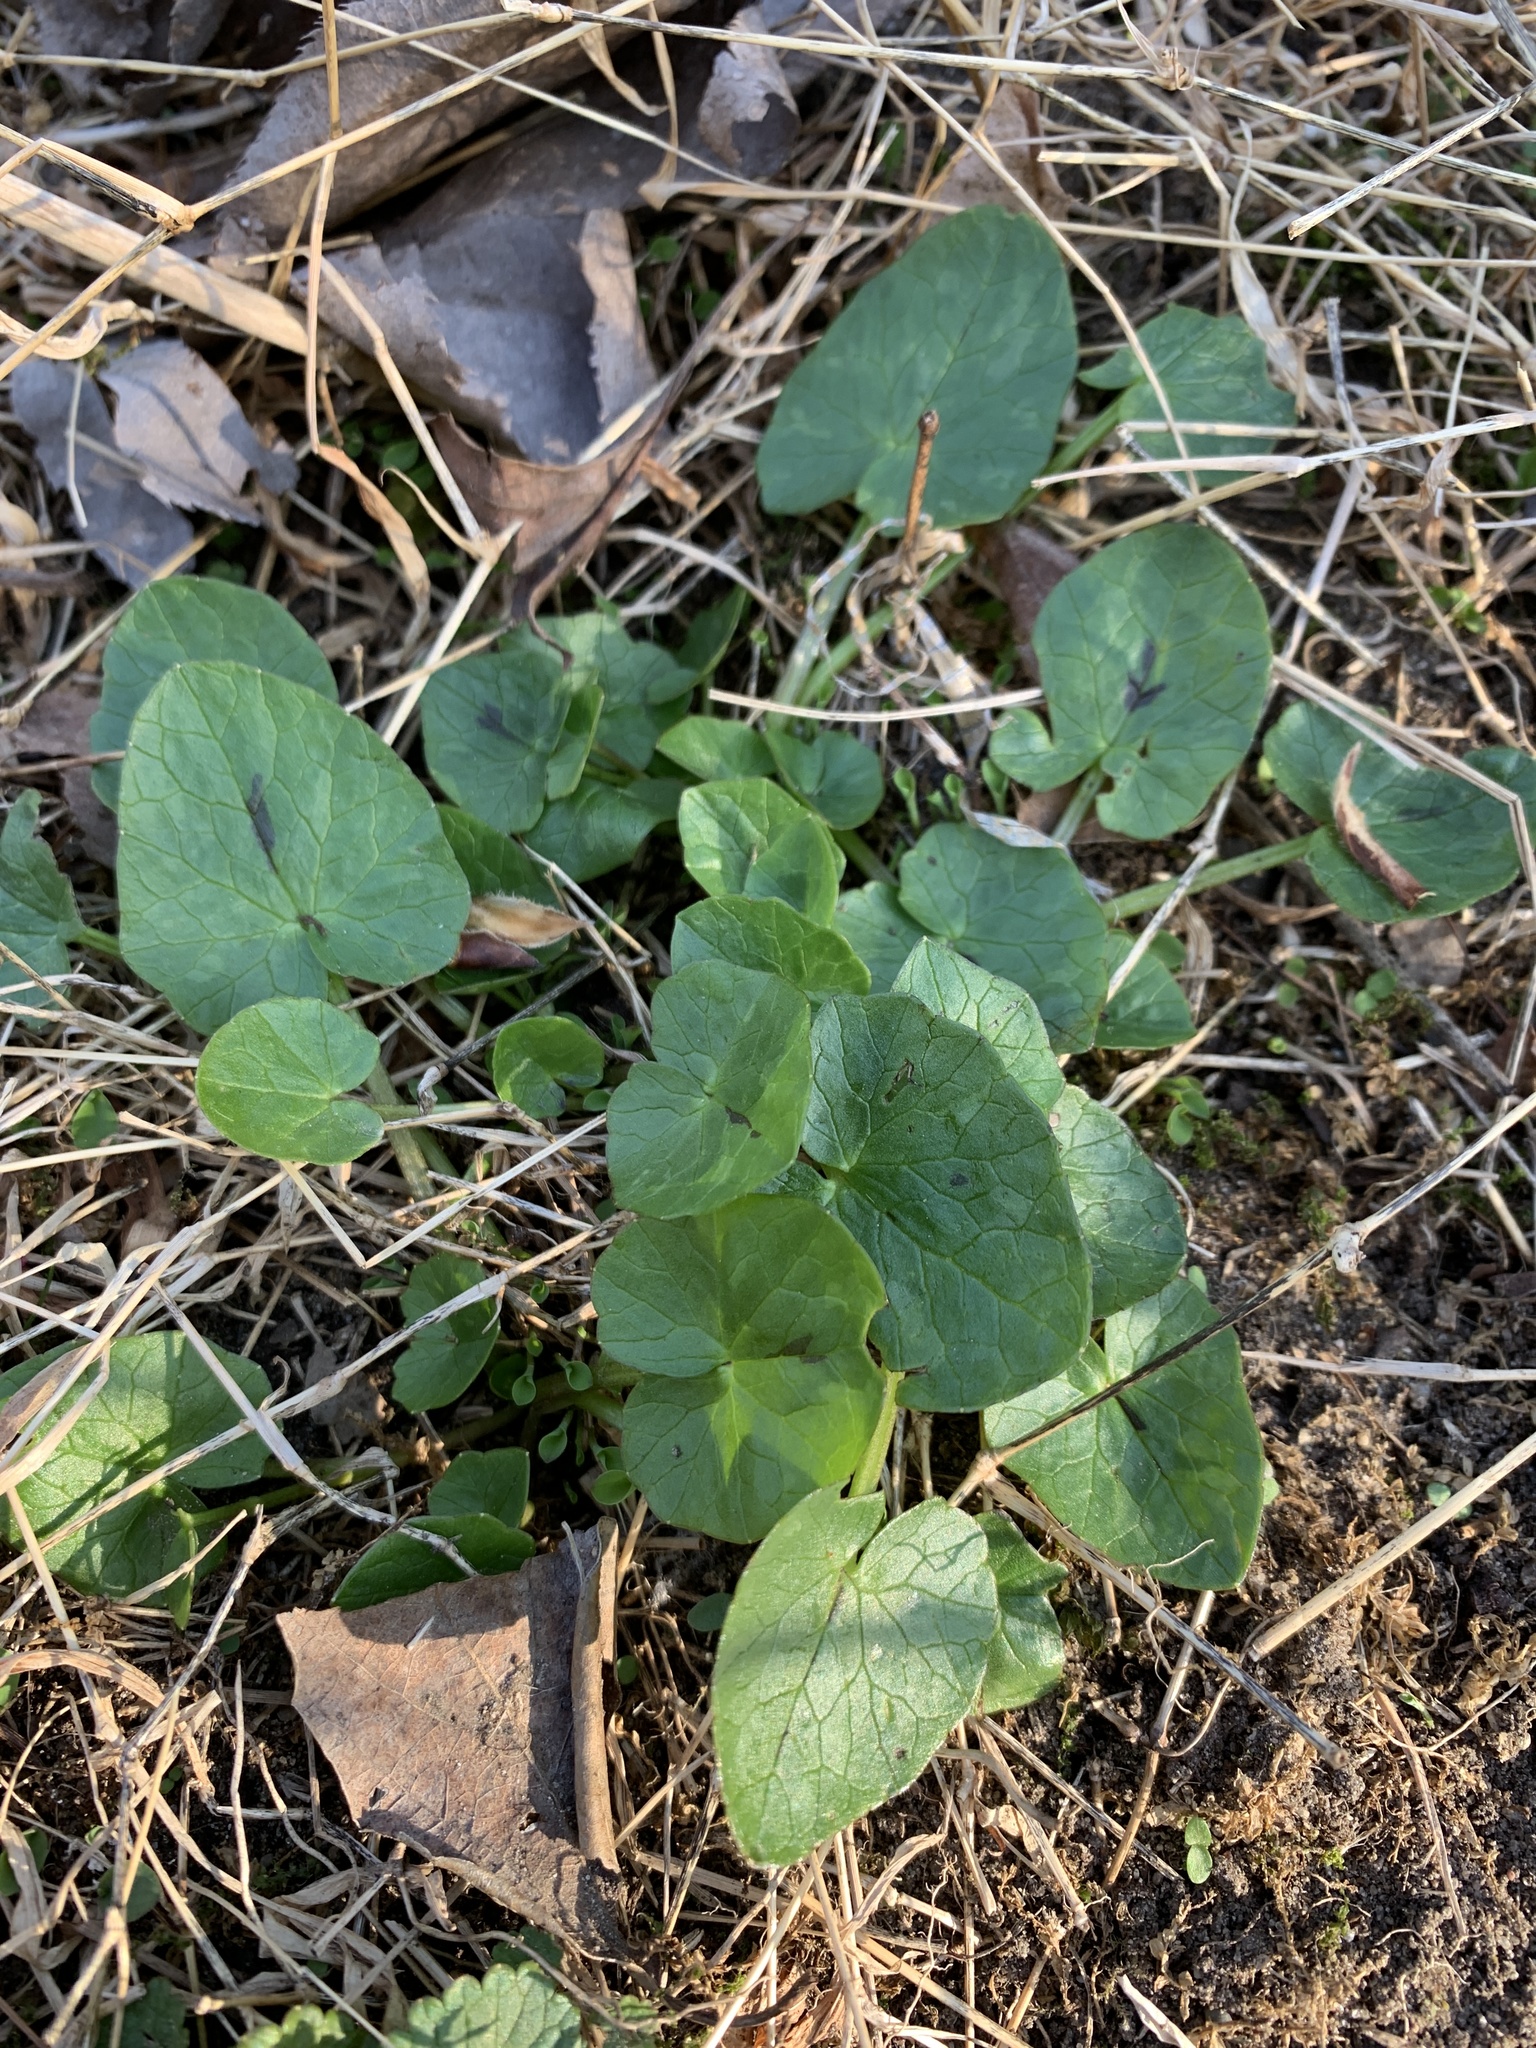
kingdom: Plantae
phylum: Tracheophyta
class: Magnoliopsida
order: Ranunculales
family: Ranunculaceae
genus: Ficaria
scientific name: Ficaria verna
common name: Lesser celandine
